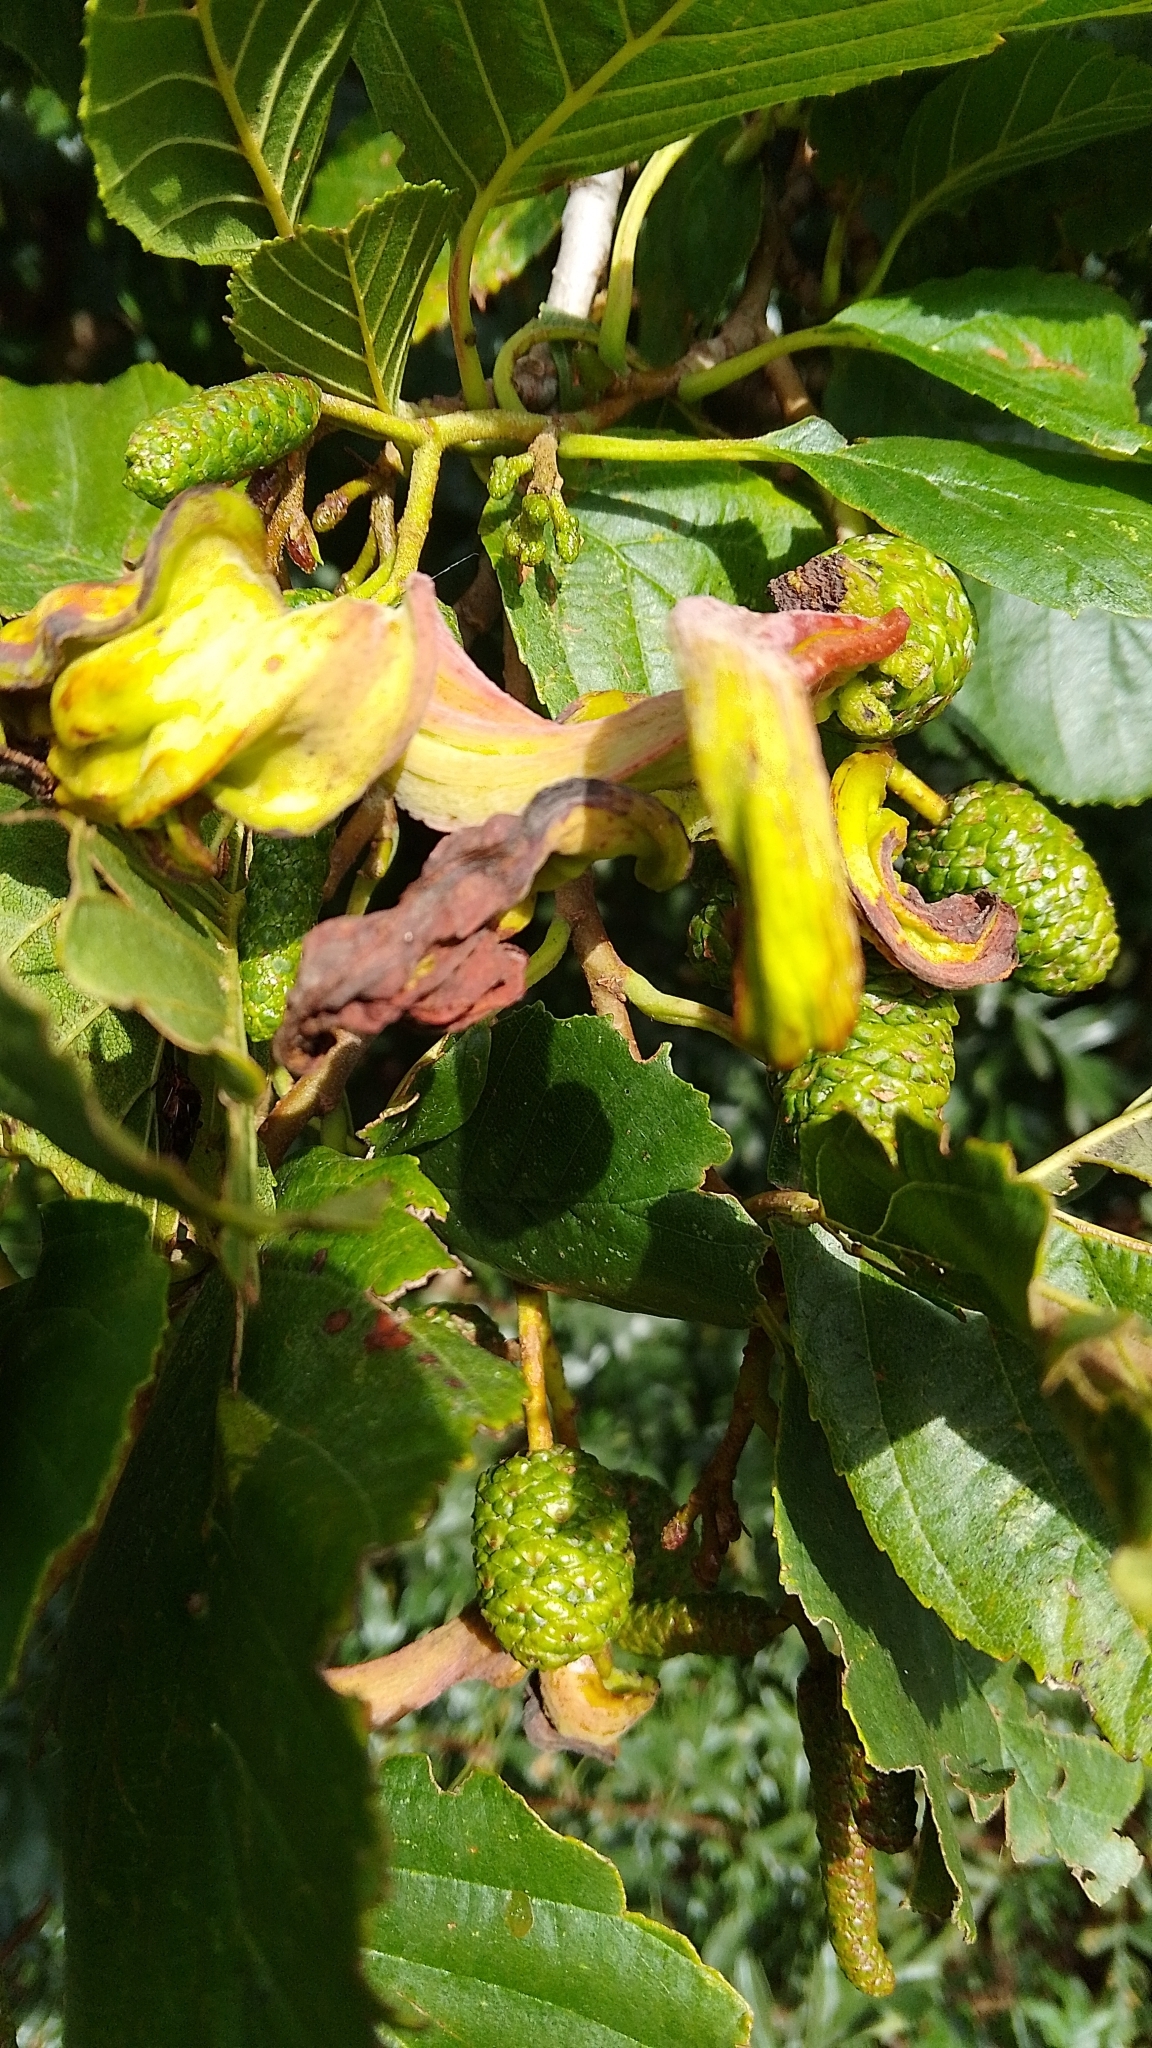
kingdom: Fungi
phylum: Ascomycota
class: Taphrinomycetes
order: Taphrinales
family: Taphrinaceae
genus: Taphrina
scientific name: Taphrina alni
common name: Alder tongue
